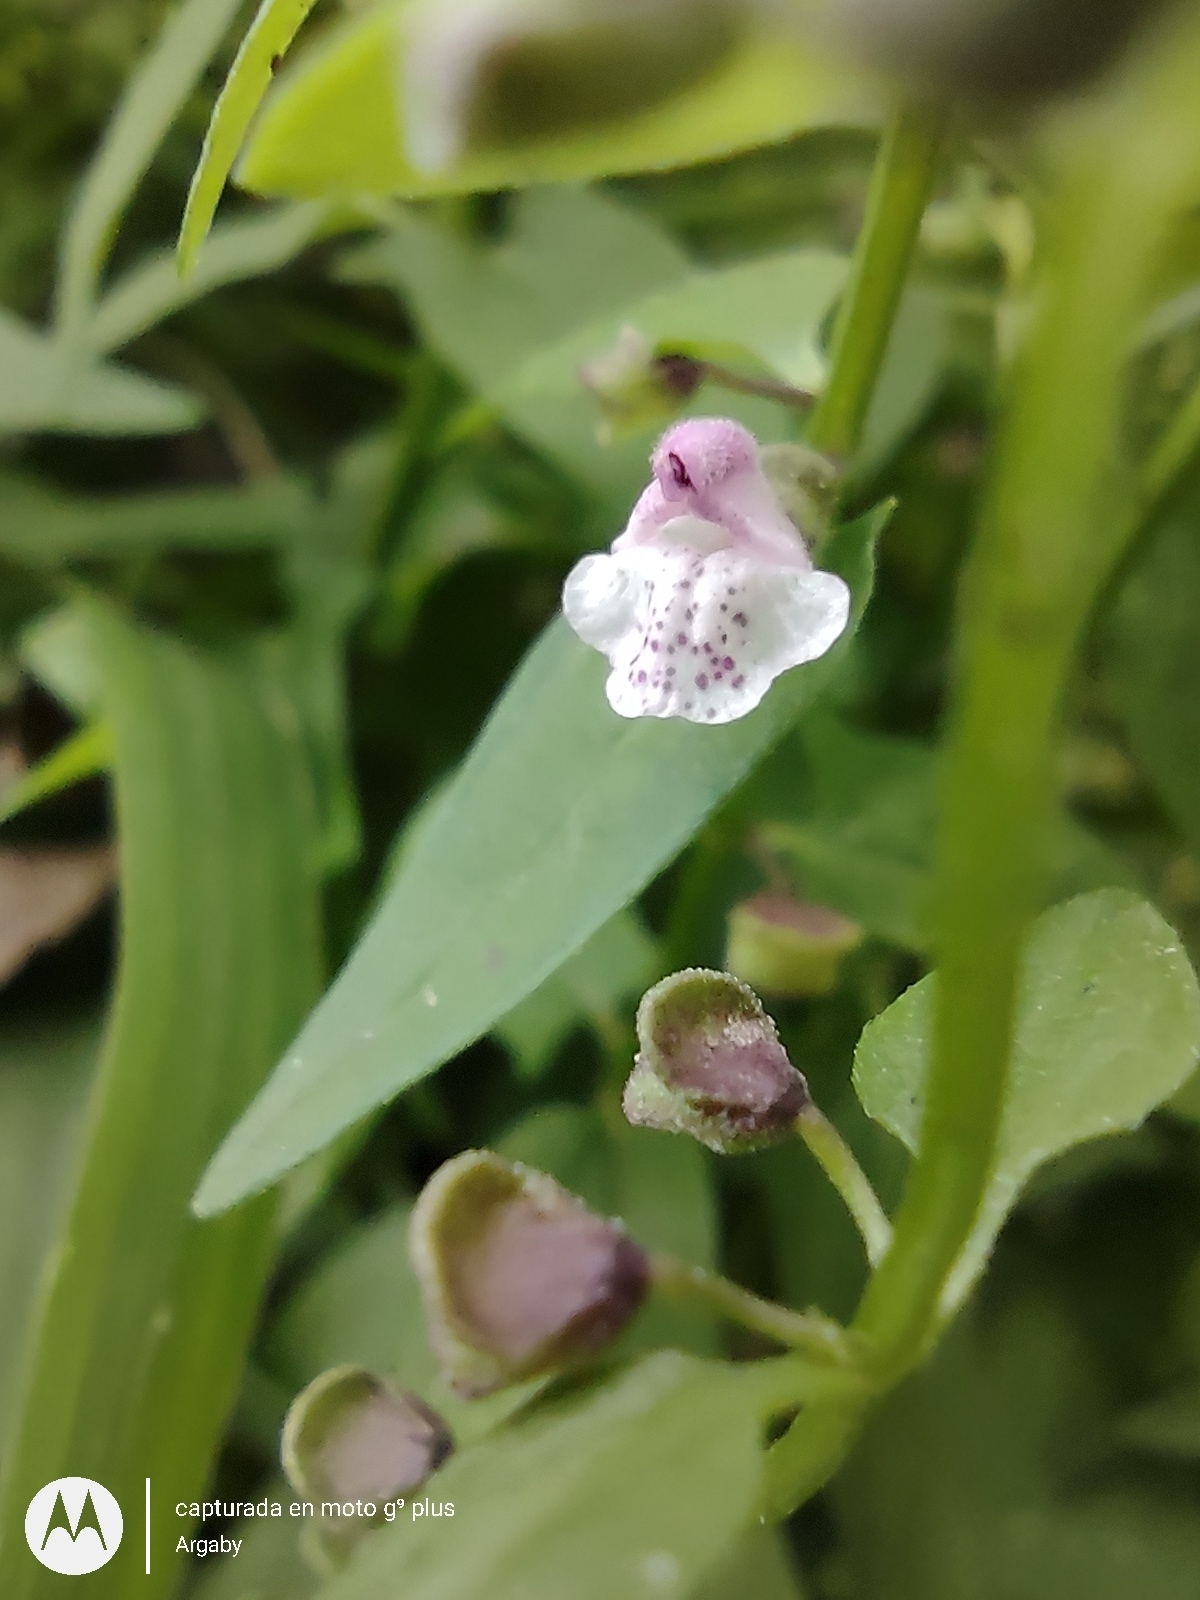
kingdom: Plantae
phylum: Tracheophyta
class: Magnoliopsida
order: Lamiales
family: Lamiaceae
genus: Scutellaria
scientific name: Scutellaria racemosa
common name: South american skullcap
